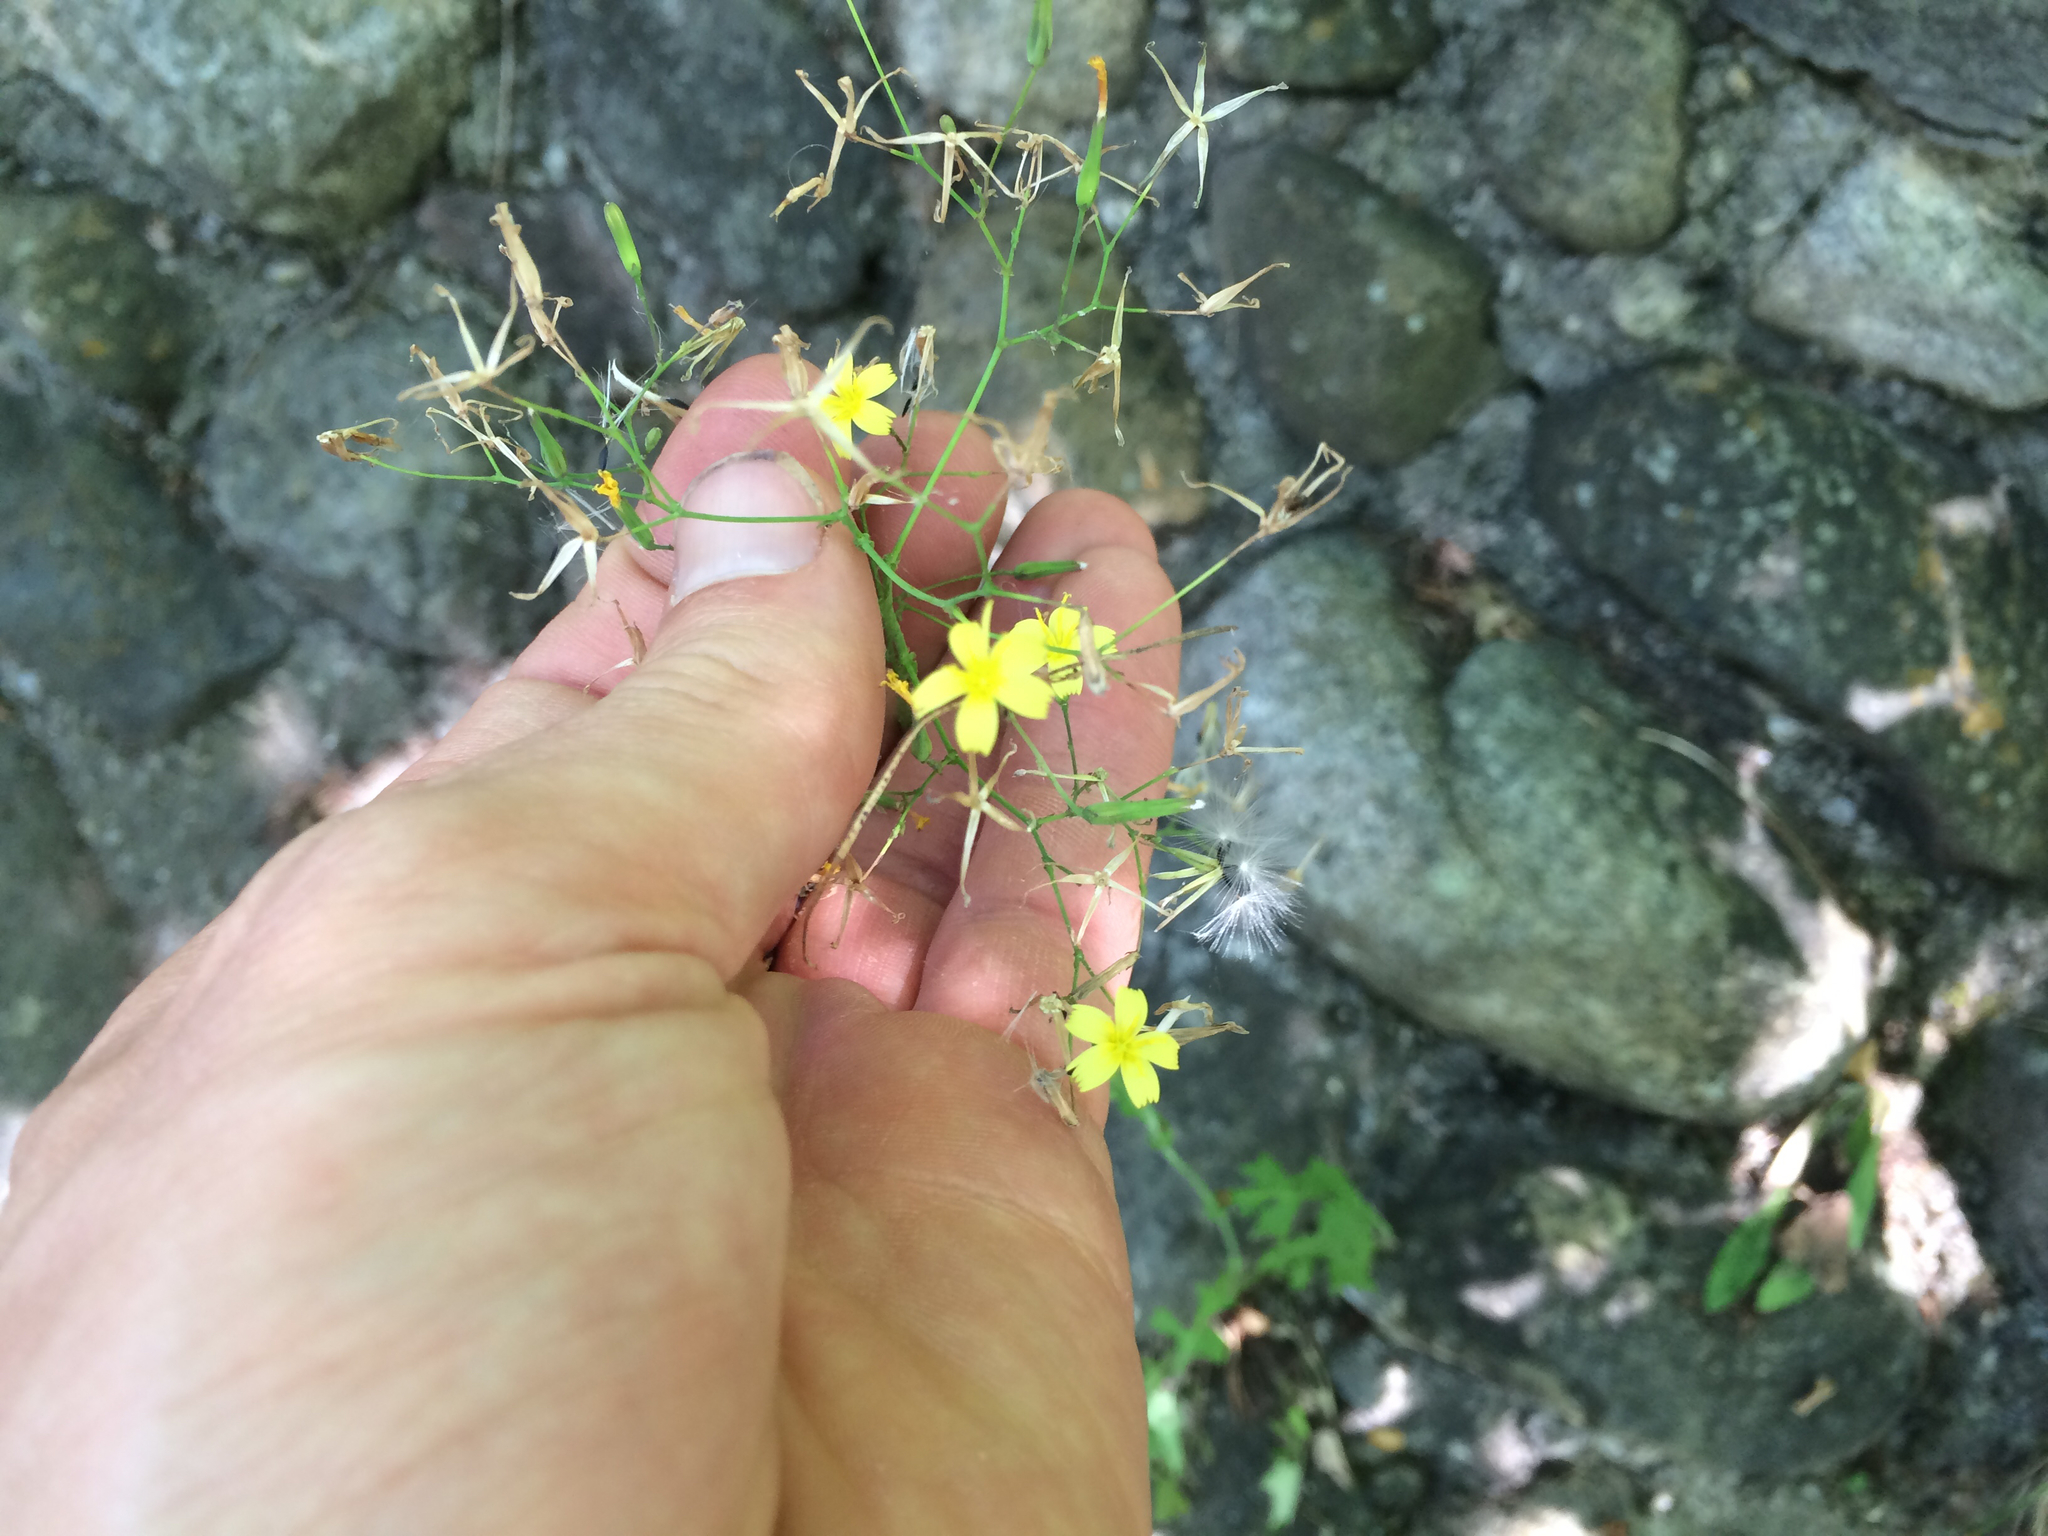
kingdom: Plantae
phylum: Tracheophyta
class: Magnoliopsida
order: Asterales
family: Asteraceae
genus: Mycelis
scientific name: Mycelis muralis
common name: Wall lettuce
